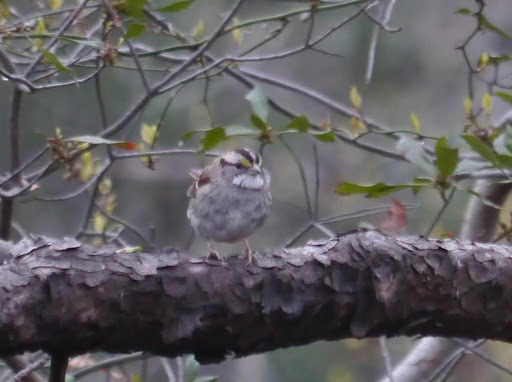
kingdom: Animalia
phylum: Chordata
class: Aves
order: Passeriformes
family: Passerellidae
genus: Zonotrichia
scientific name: Zonotrichia albicollis
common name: White-throated sparrow
